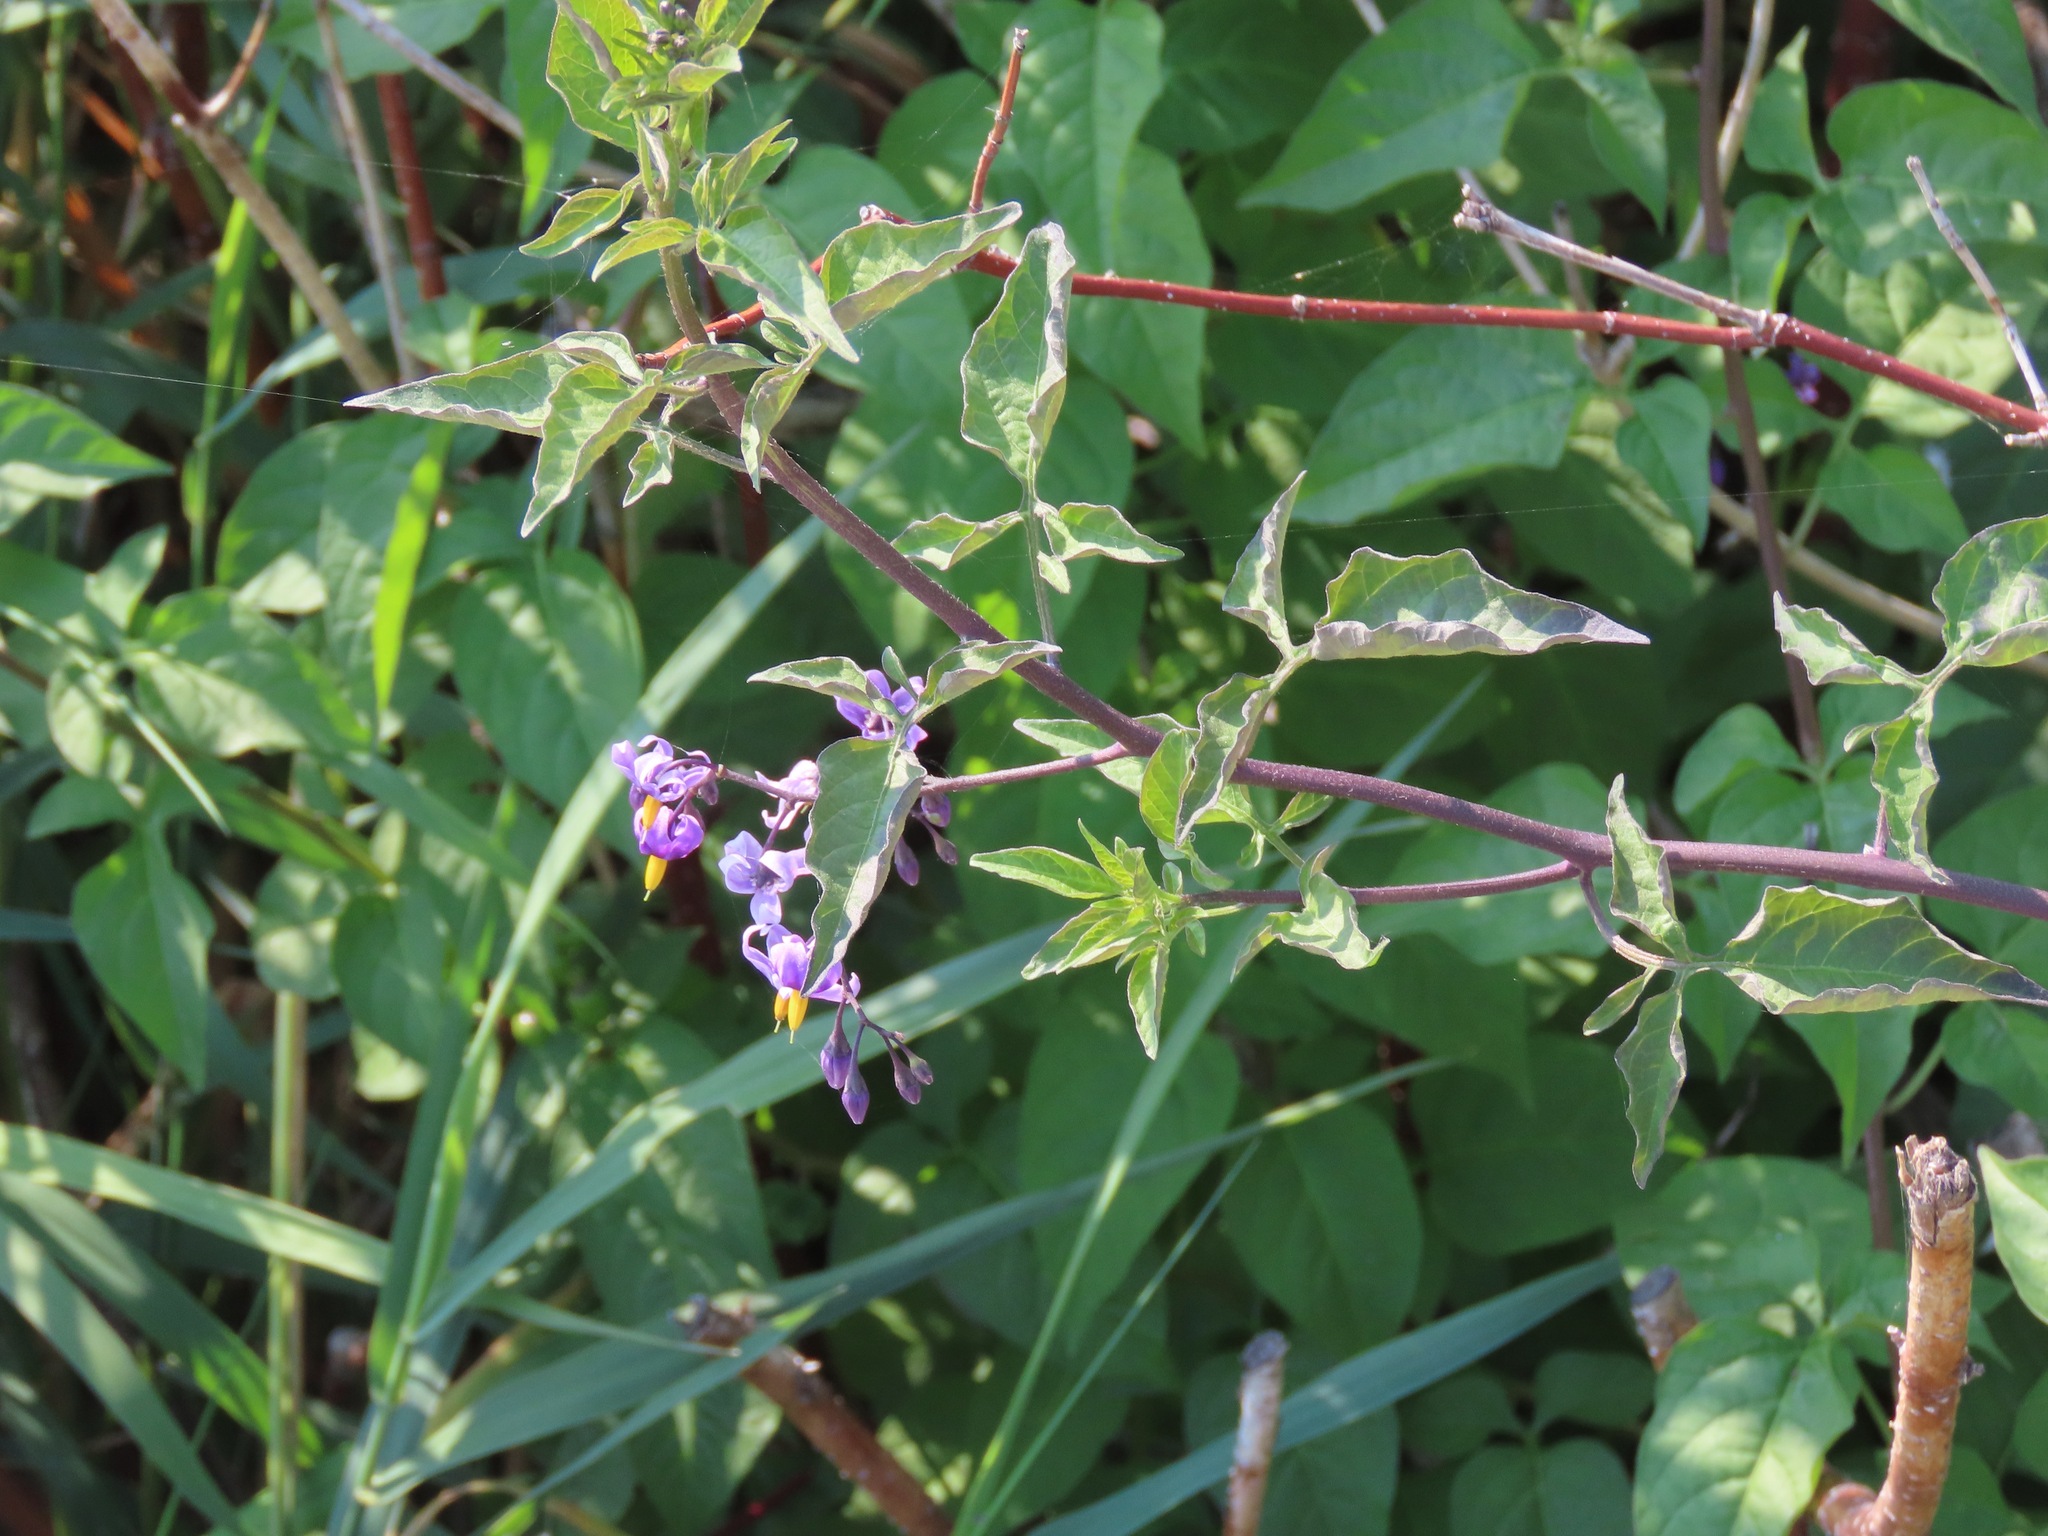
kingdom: Plantae
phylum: Tracheophyta
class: Magnoliopsida
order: Solanales
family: Solanaceae
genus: Solanum
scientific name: Solanum dulcamara
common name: Climbing nightshade
